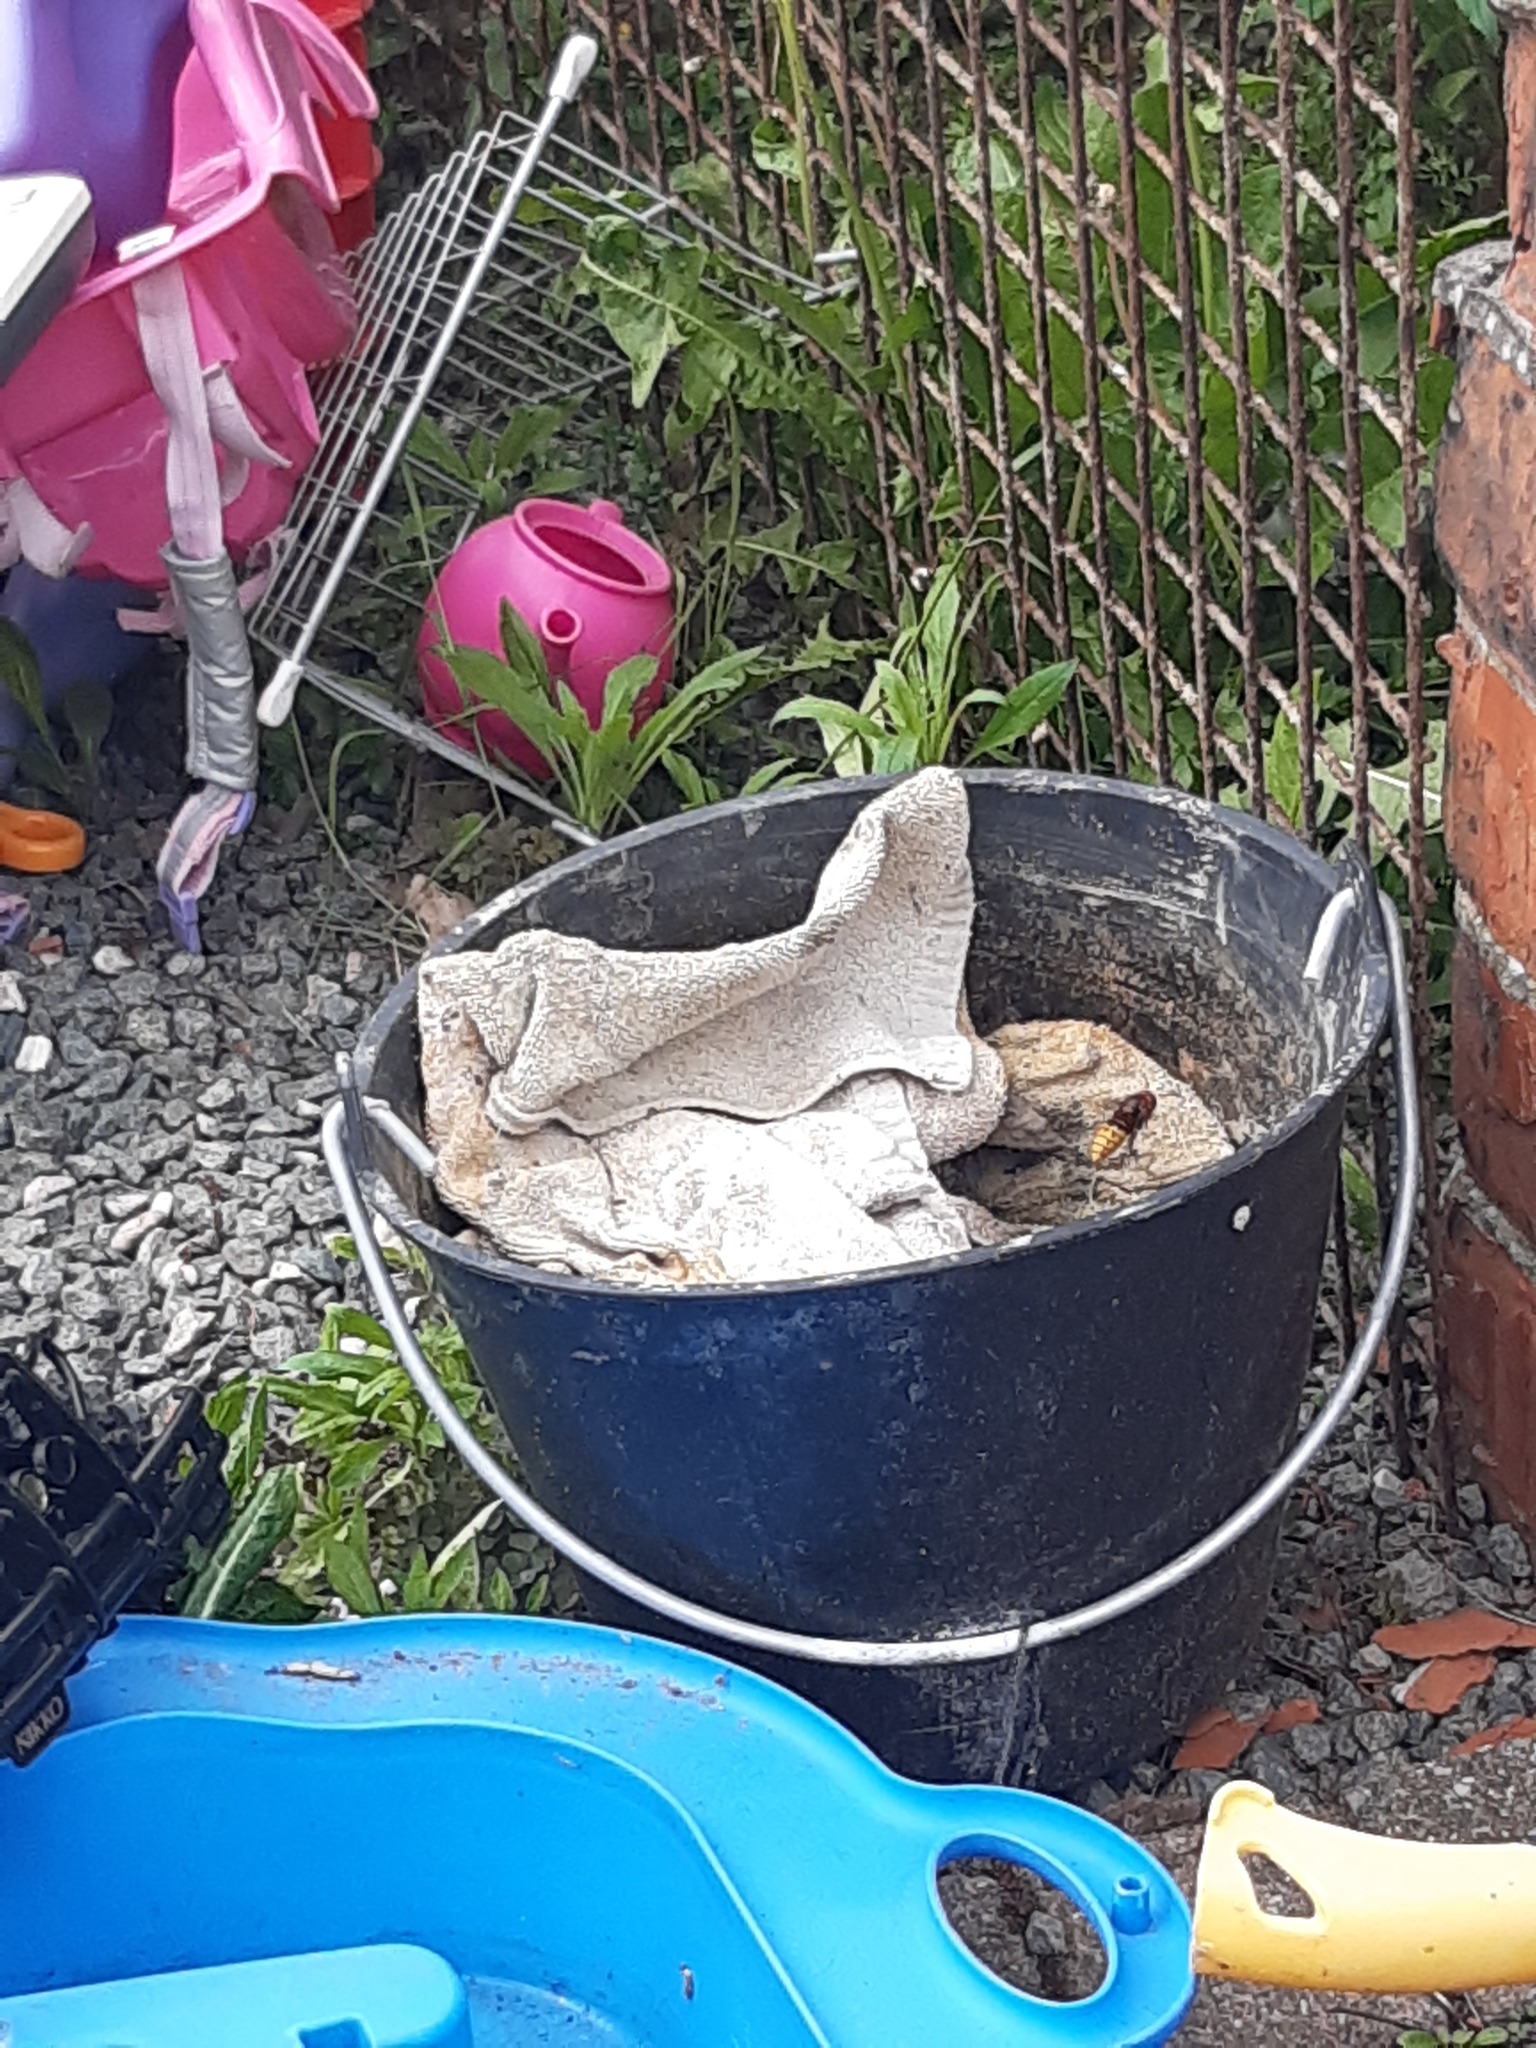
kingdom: Animalia
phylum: Arthropoda
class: Insecta
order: Hymenoptera
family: Vespidae
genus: Vespa
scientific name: Vespa crabro
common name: Hornet
